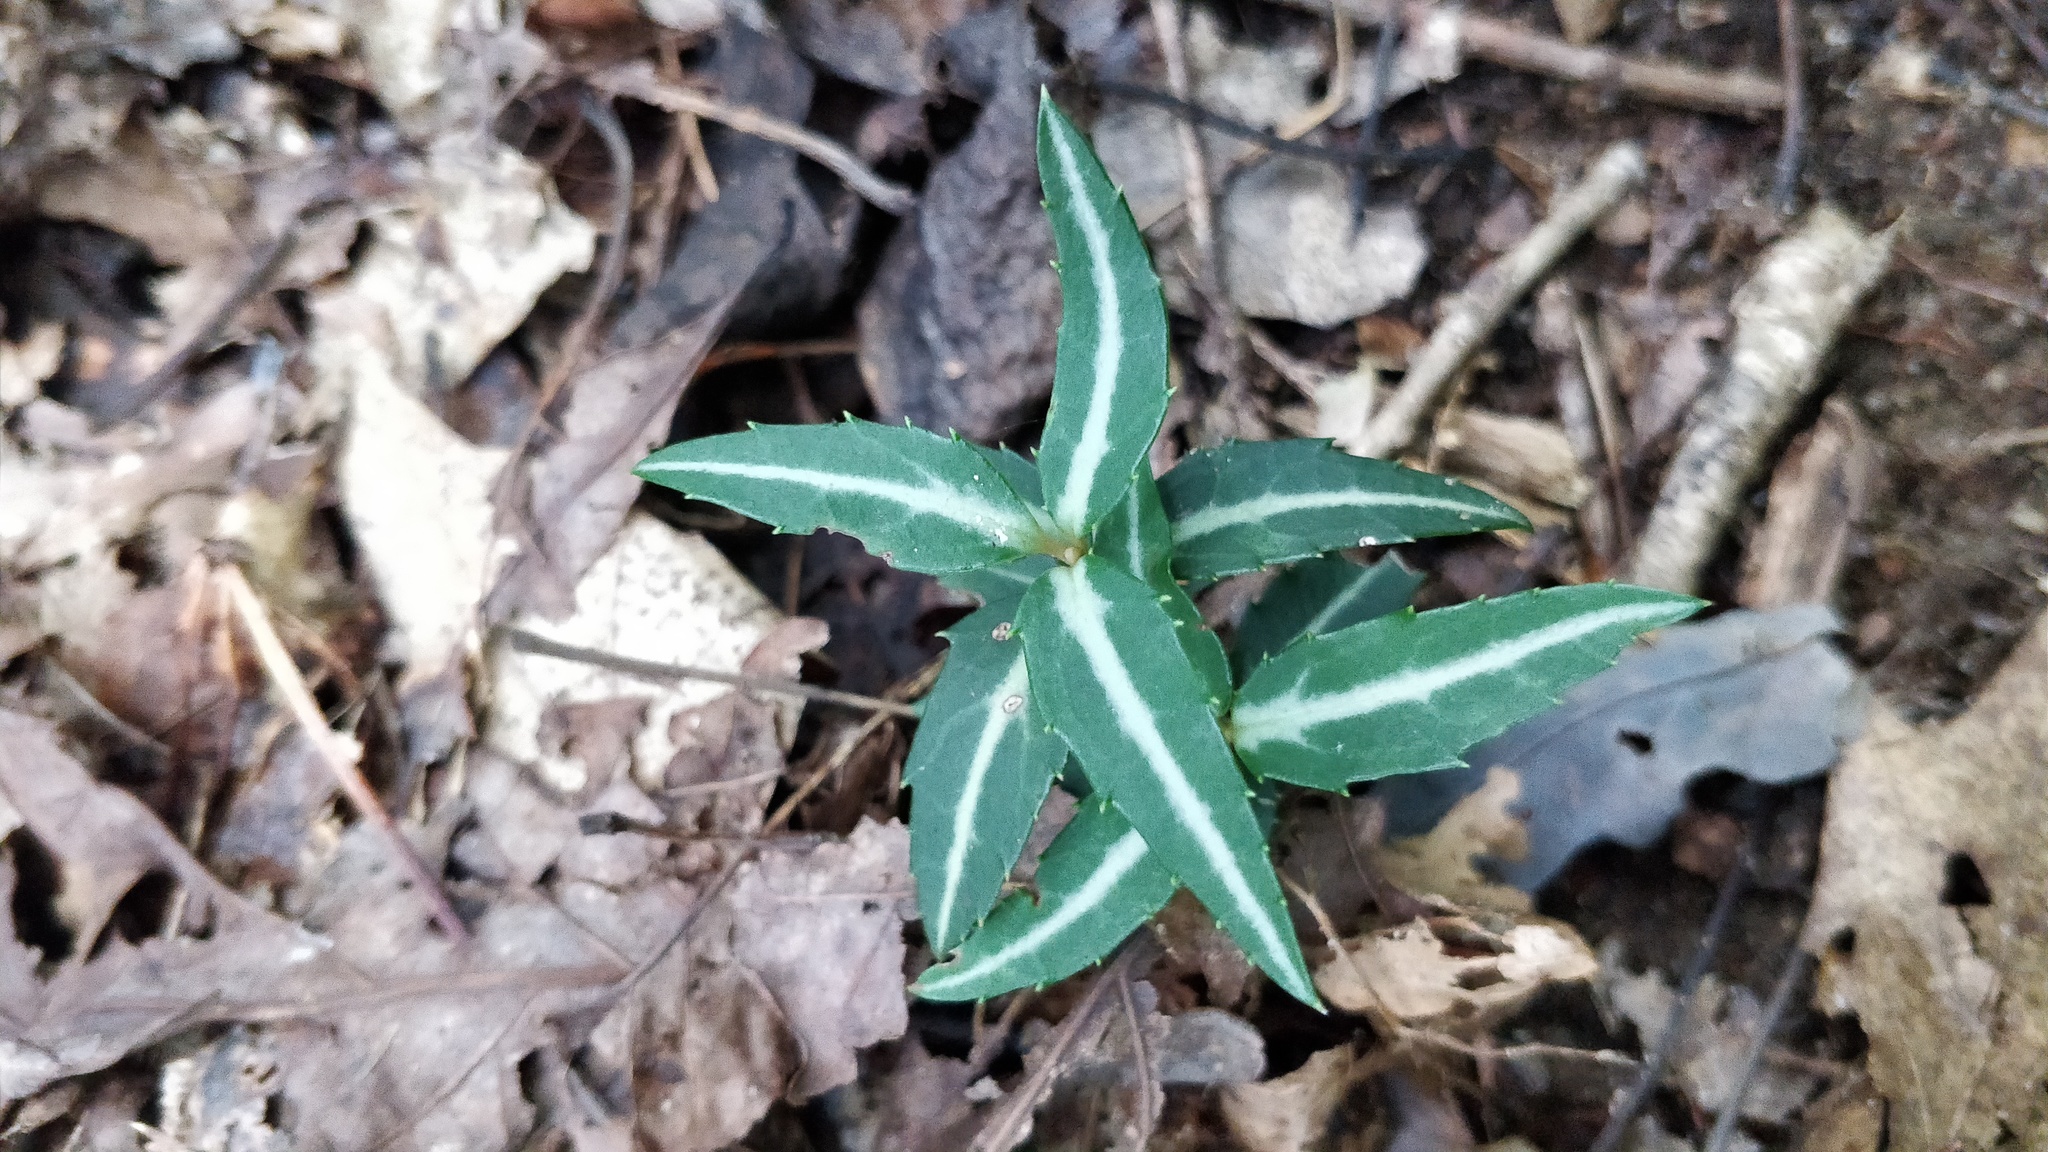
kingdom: Plantae
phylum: Tracheophyta
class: Magnoliopsida
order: Ericales
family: Ericaceae
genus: Chimaphila
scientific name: Chimaphila maculata
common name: Spotted pipsissewa
